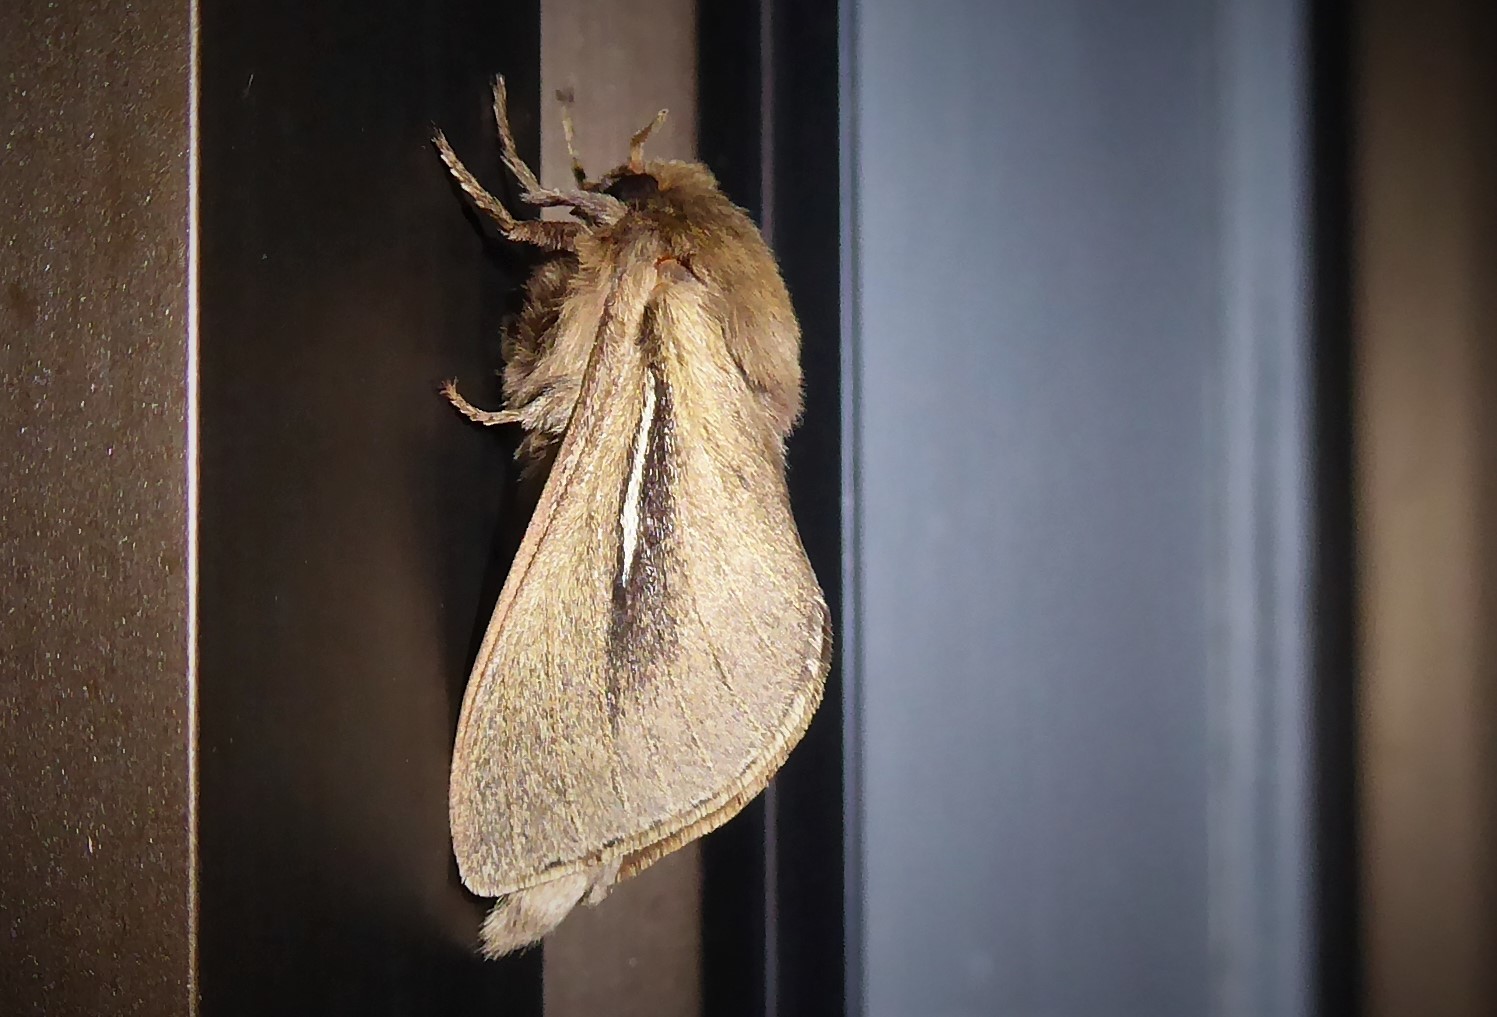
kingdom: Animalia
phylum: Arthropoda
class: Insecta
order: Lepidoptera
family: Hepialidae
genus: Wiseana
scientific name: Wiseana umbraculatus
